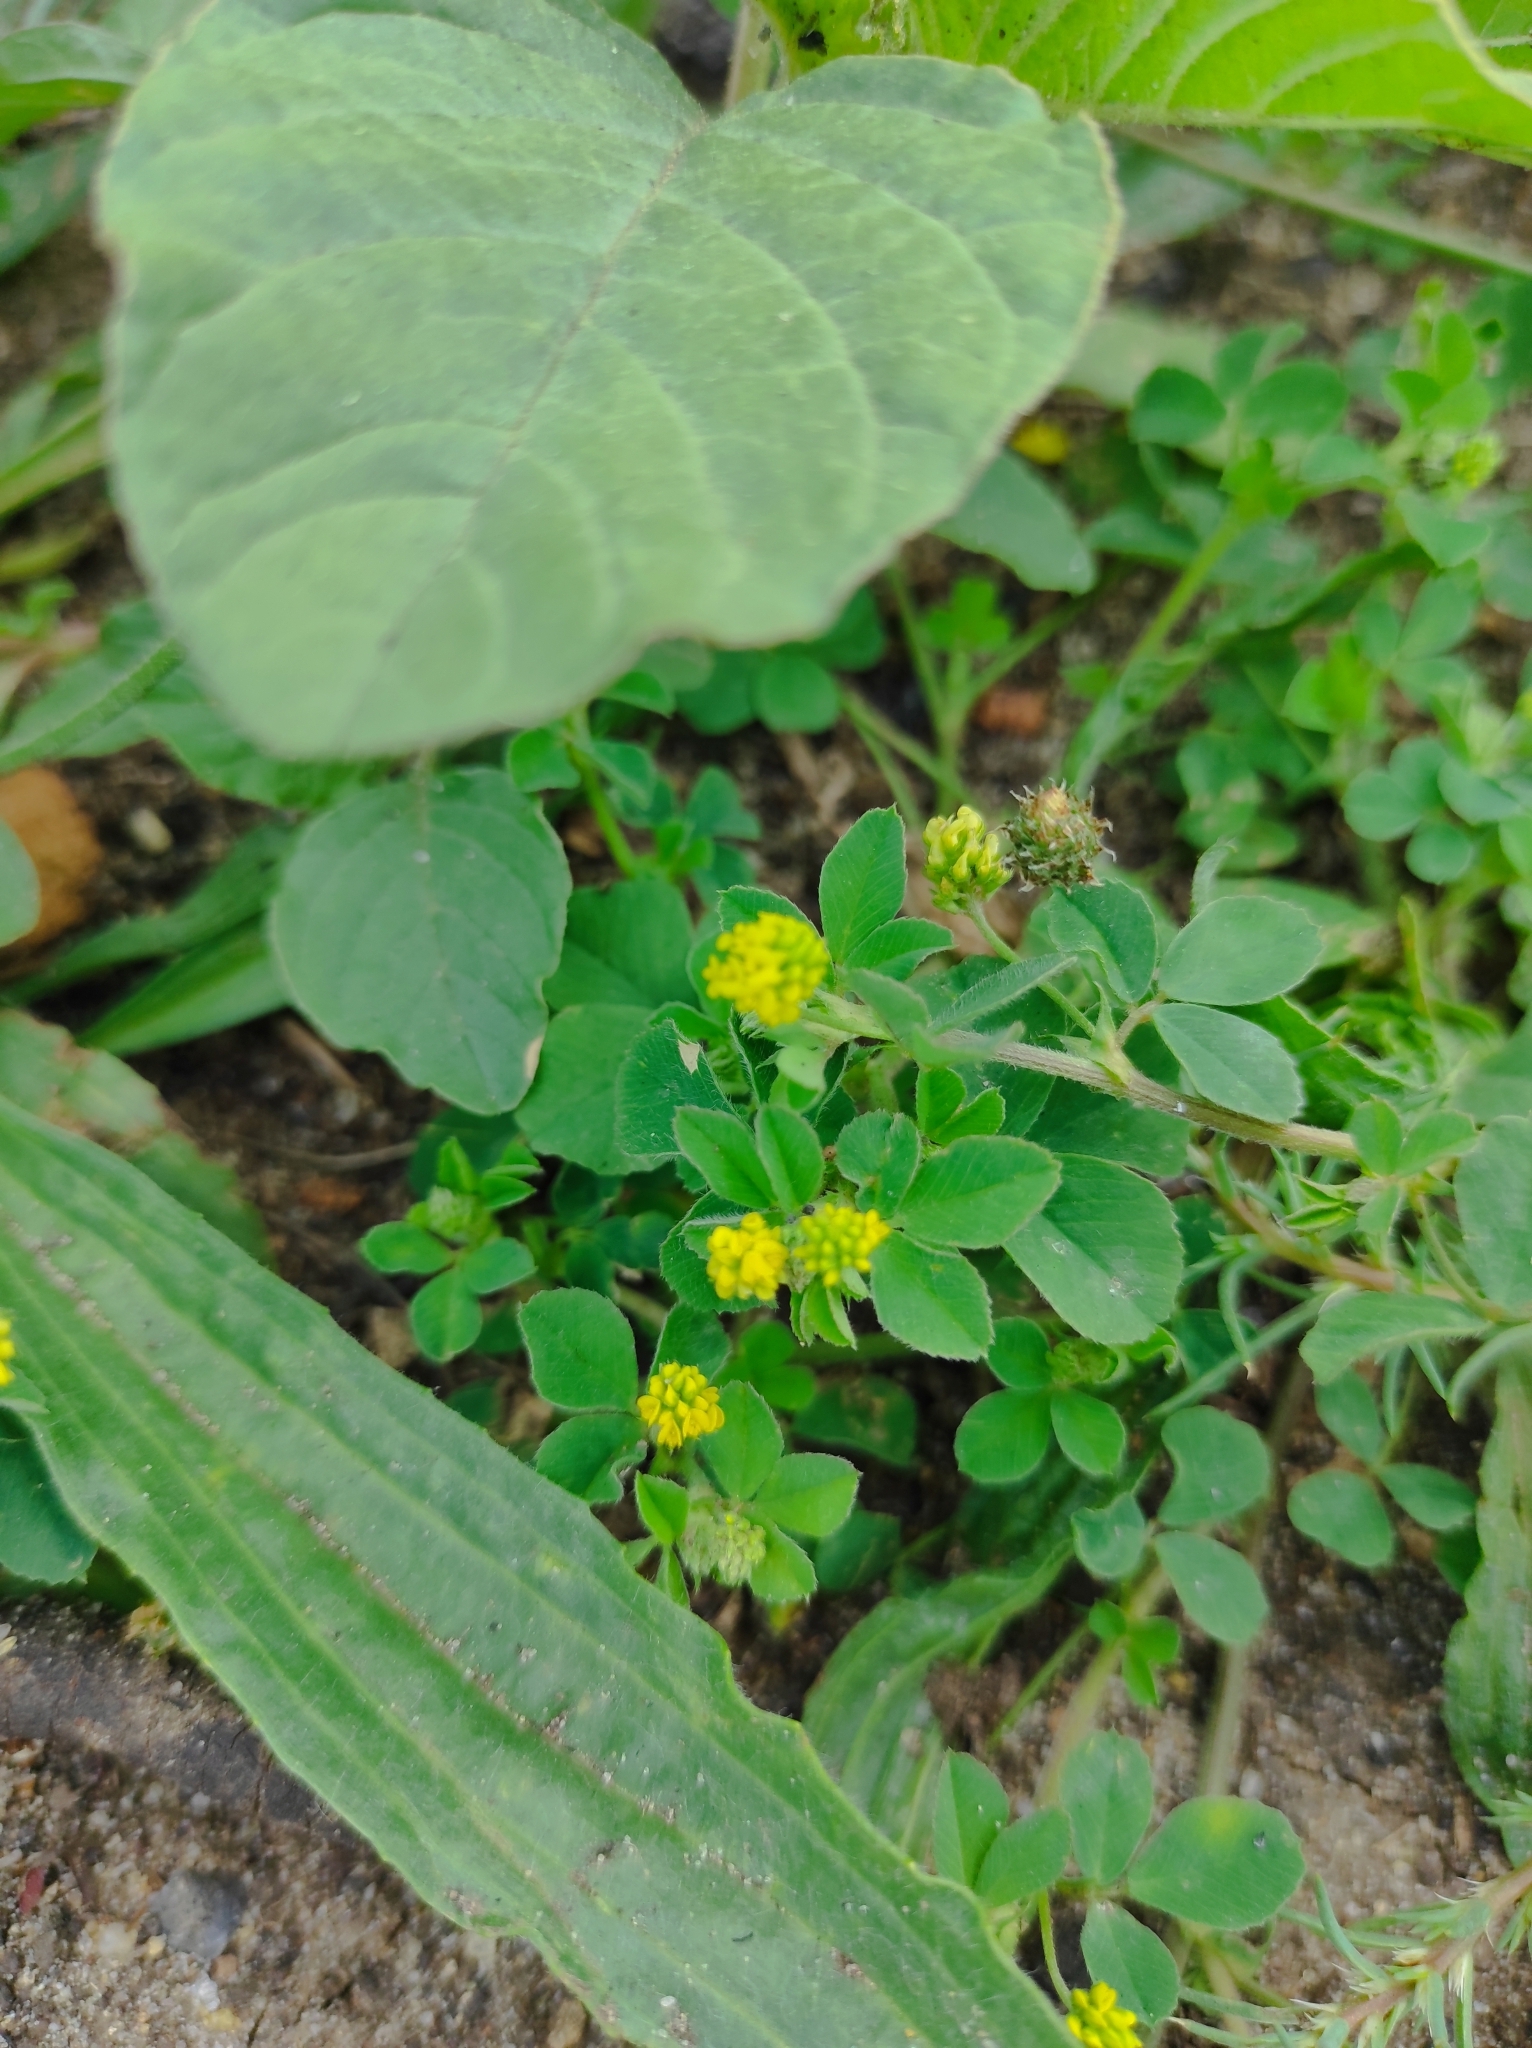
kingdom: Plantae
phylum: Tracheophyta
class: Magnoliopsida
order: Fabales
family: Fabaceae
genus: Medicago
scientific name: Medicago lupulina
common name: Black medick
